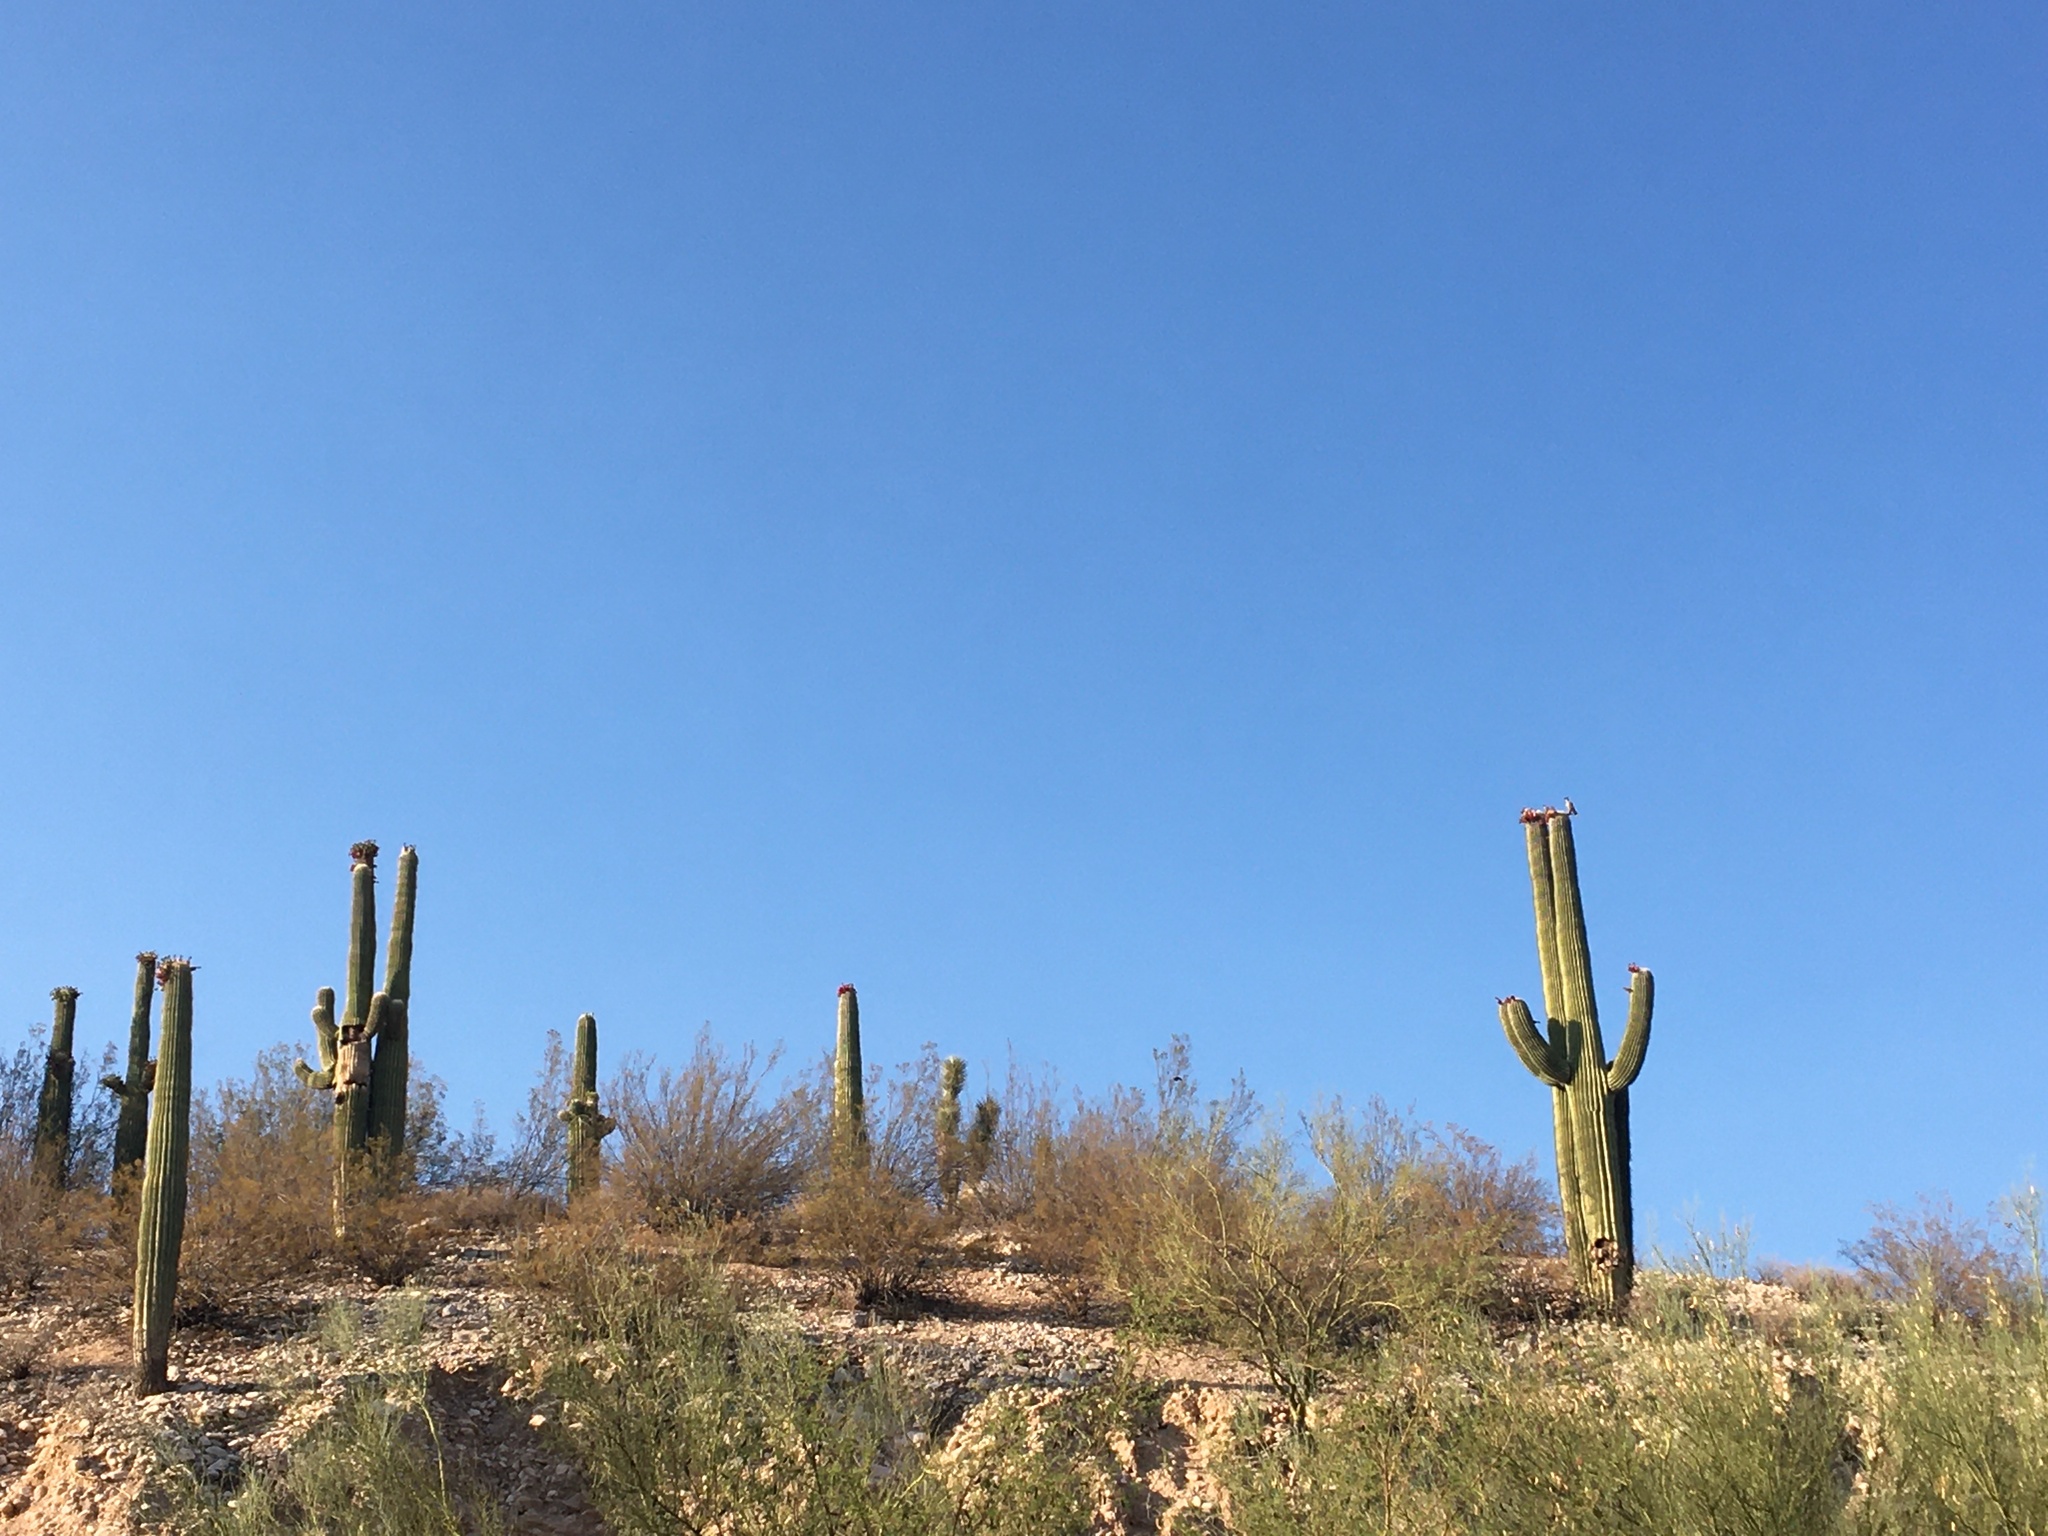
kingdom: Plantae
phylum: Tracheophyta
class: Magnoliopsida
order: Caryophyllales
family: Cactaceae
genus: Carnegiea
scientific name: Carnegiea gigantea
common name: Saguaro
